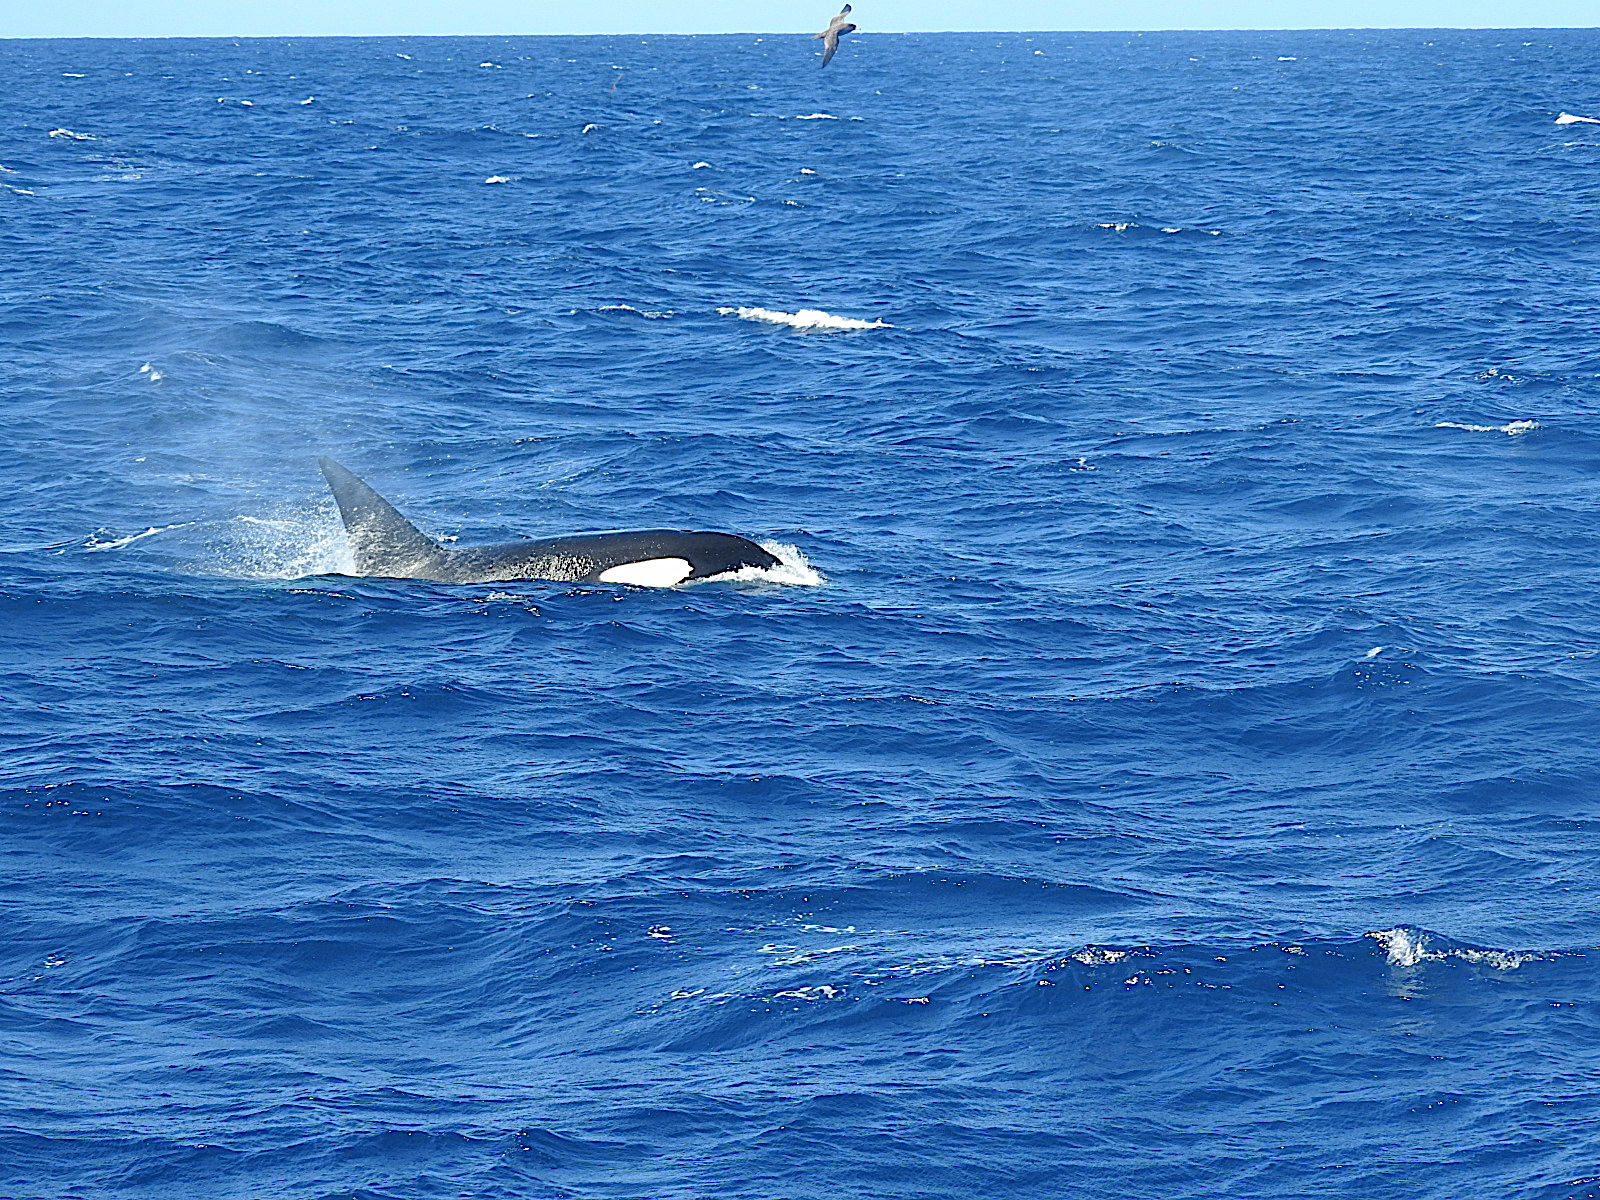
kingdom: Animalia
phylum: Chordata
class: Mammalia
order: Cetacea
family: Delphinidae
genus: Orcinus
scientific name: Orcinus orca
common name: Killer whale
